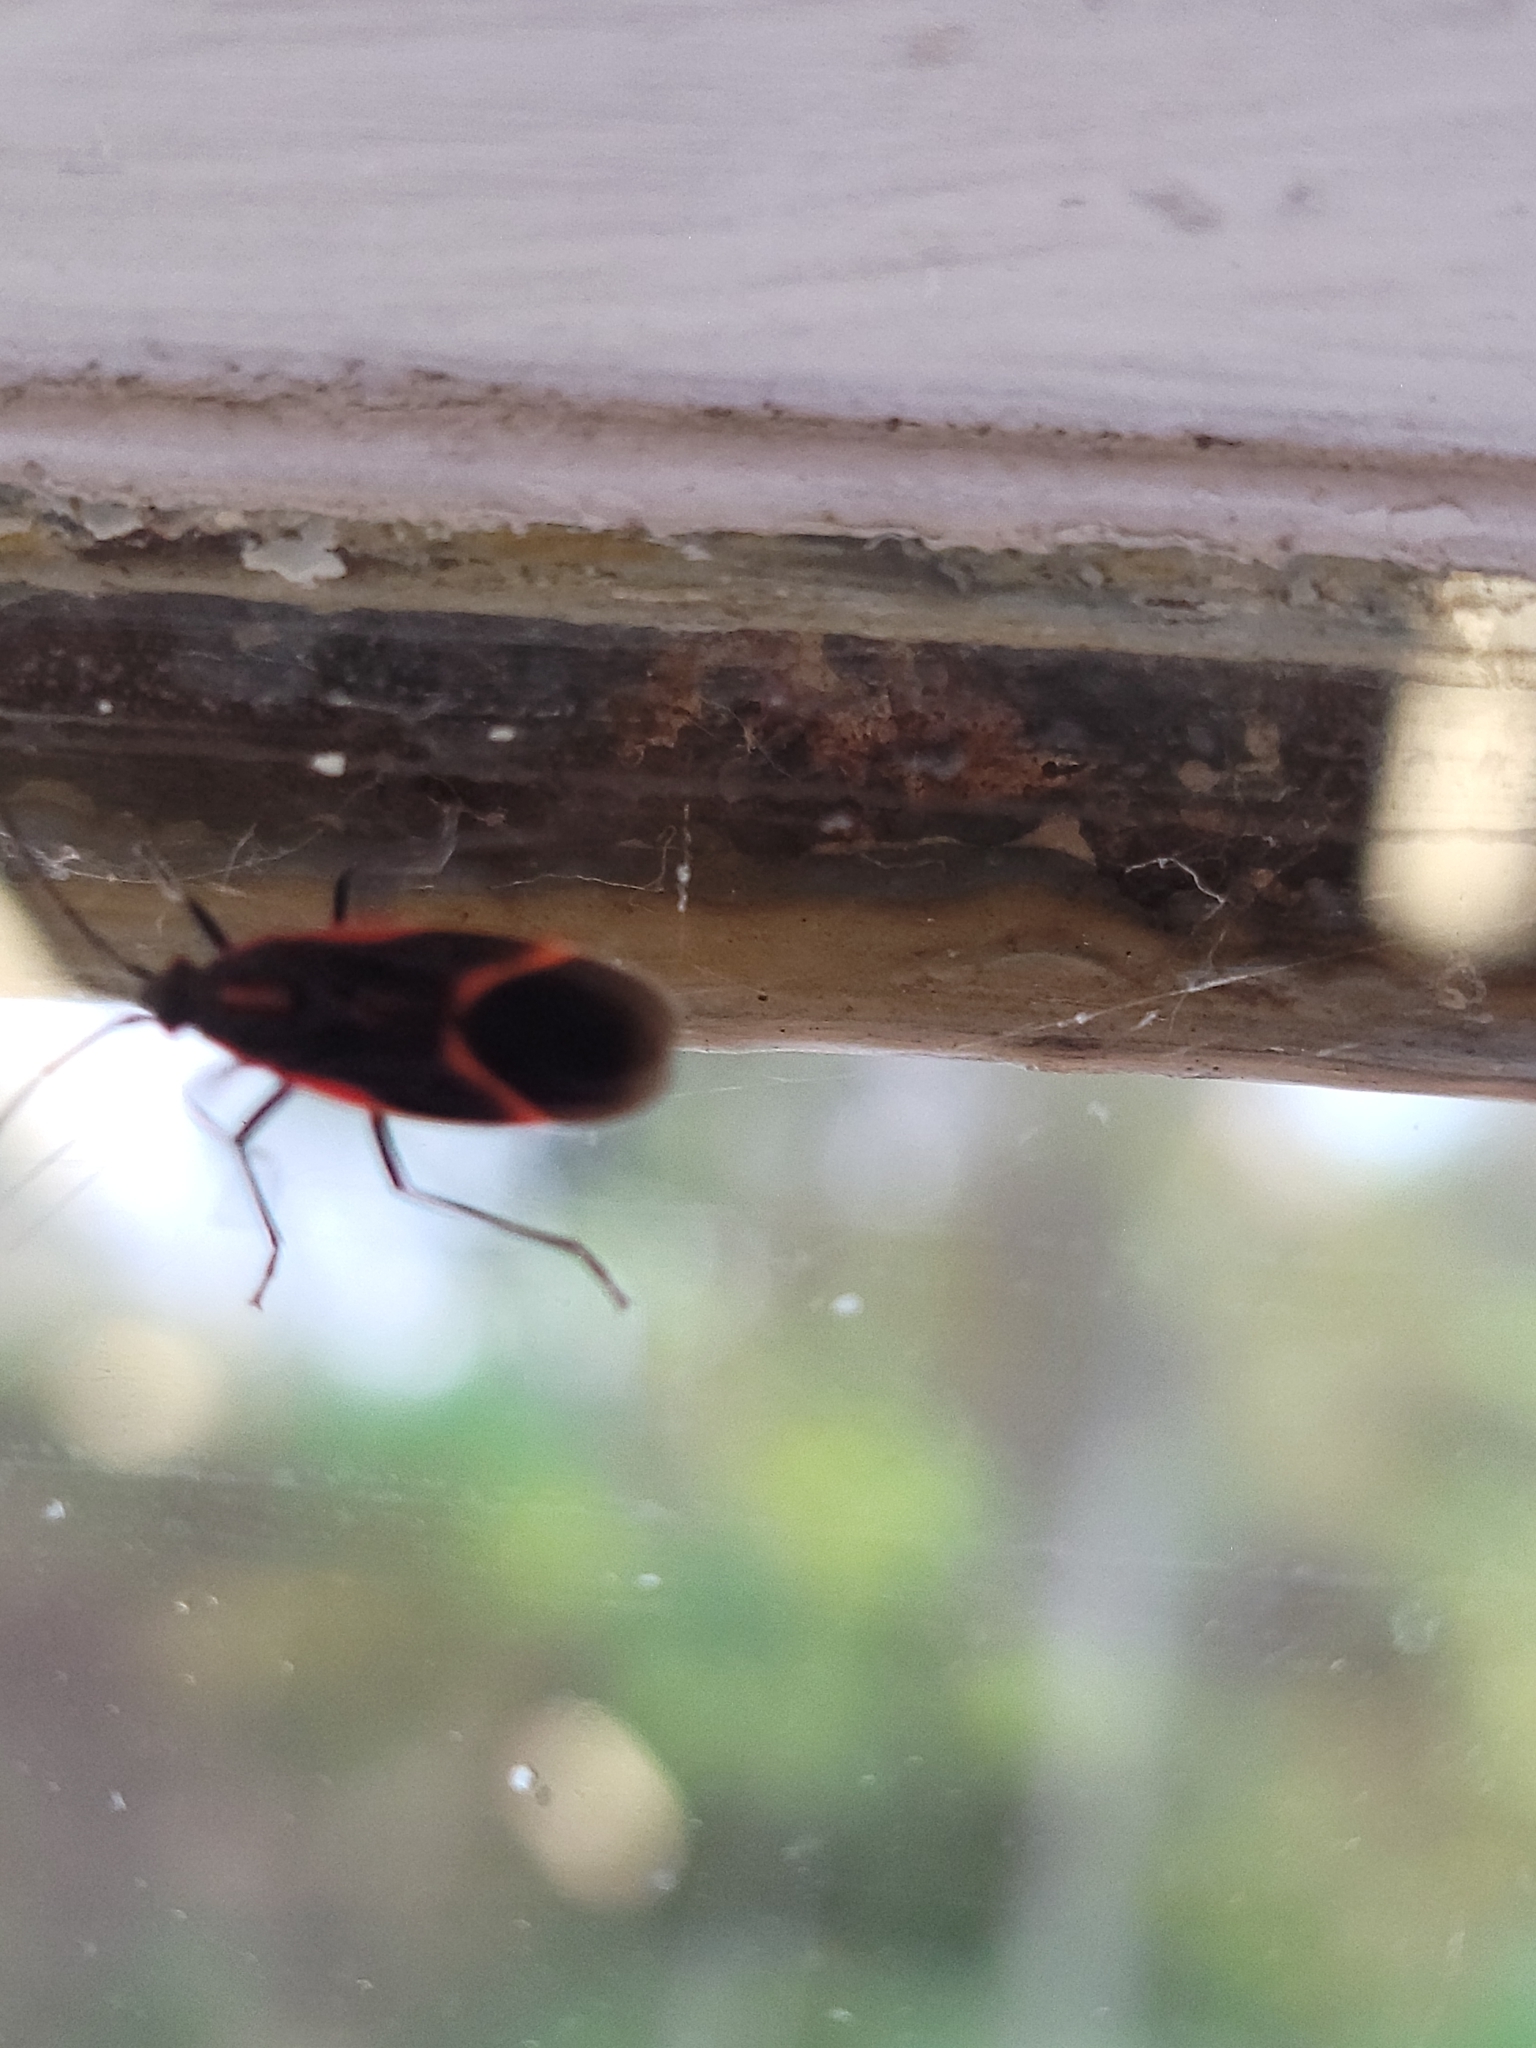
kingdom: Animalia
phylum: Arthropoda
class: Insecta
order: Hemiptera
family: Rhopalidae
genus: Boisea
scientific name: Boisea trivittata
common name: Boxelder bug
